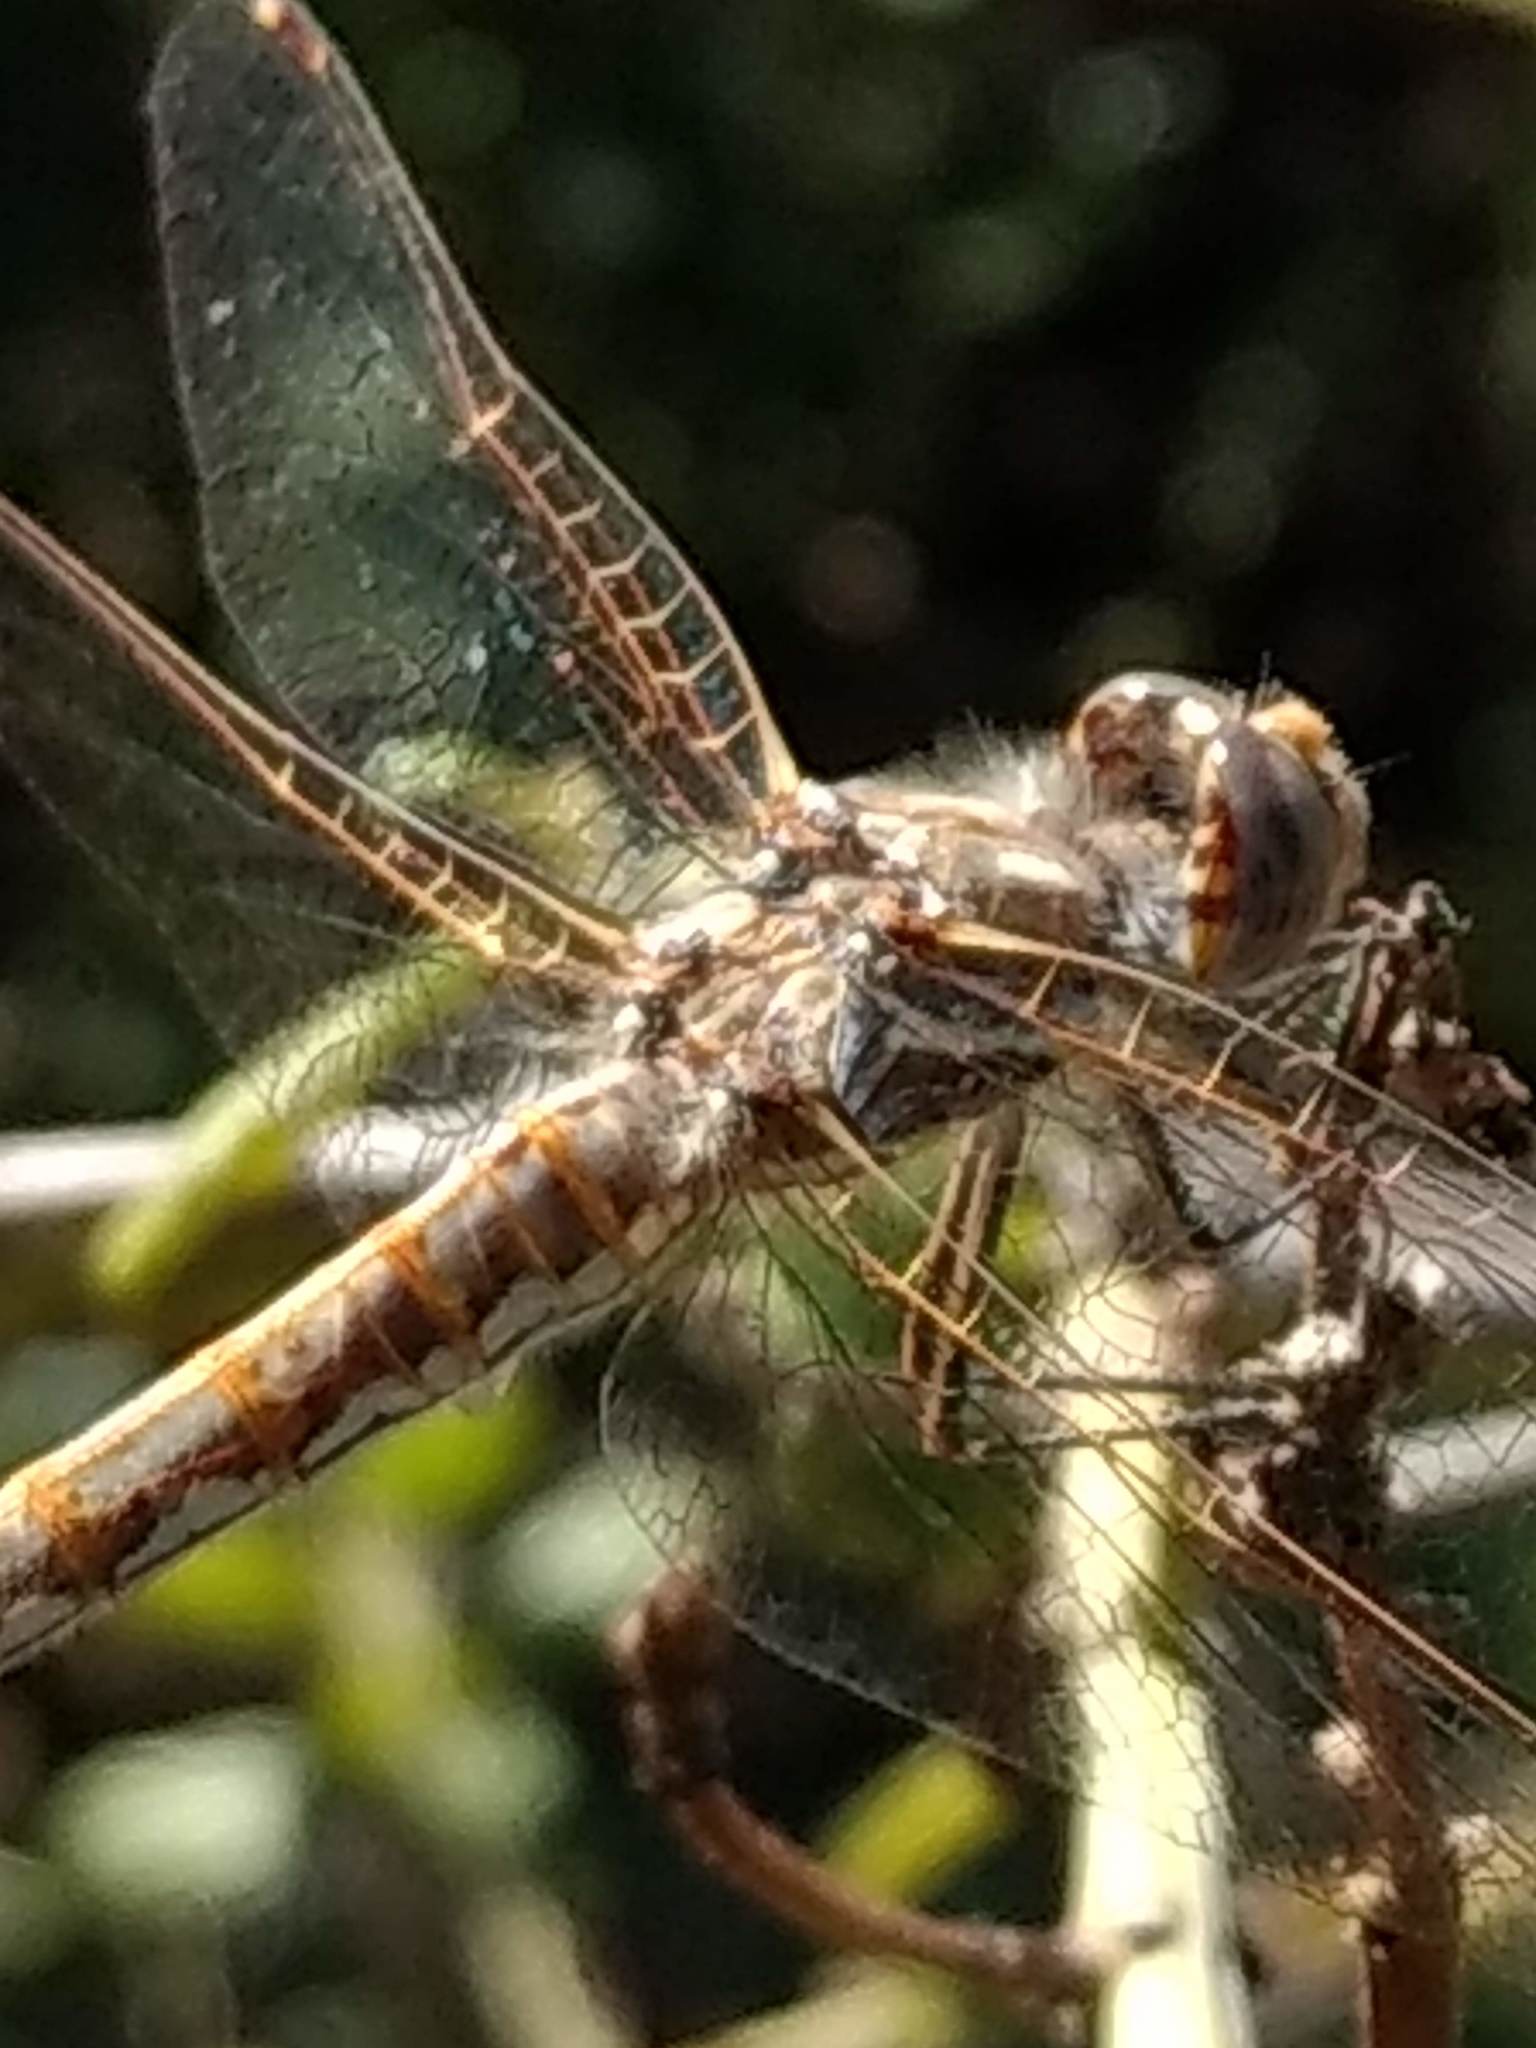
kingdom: Animalia
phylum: Arthropoda
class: Insecta
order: Odonata
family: Libellulidae
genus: Sympetrum
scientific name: Sympetrum corruptum
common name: Variegated meadowhawk
